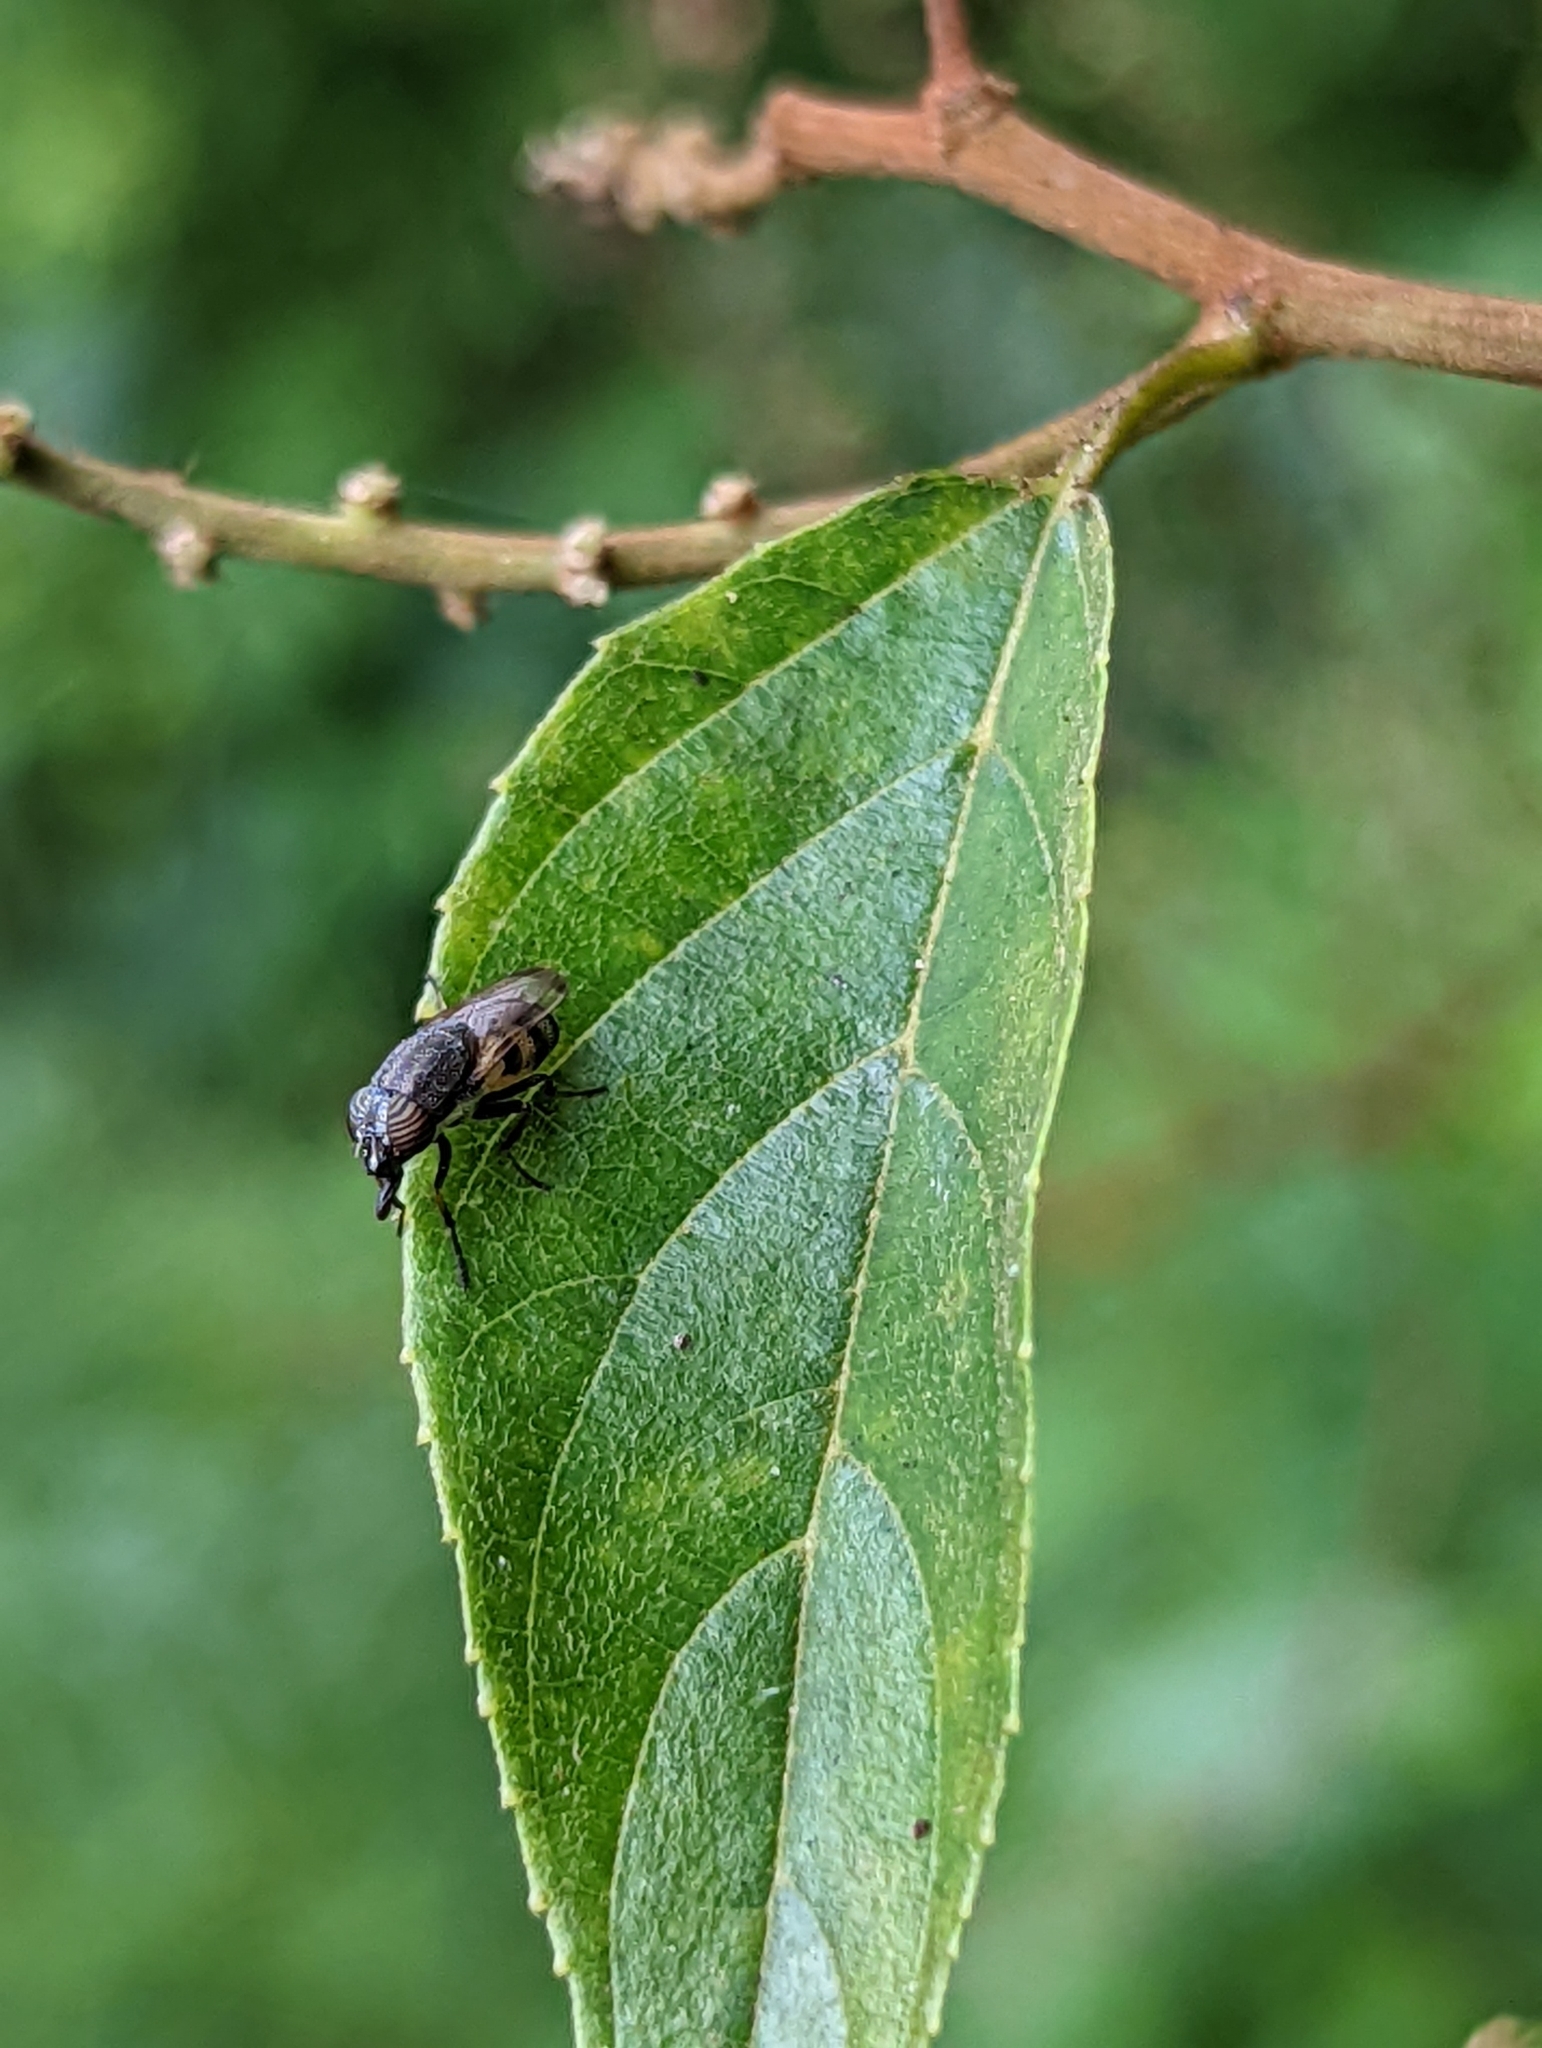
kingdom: Animalia
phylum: Arthropoda
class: Insecta
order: Diptera
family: Calliphoridae
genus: Stomorhina
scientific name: Stomorhina discolor
